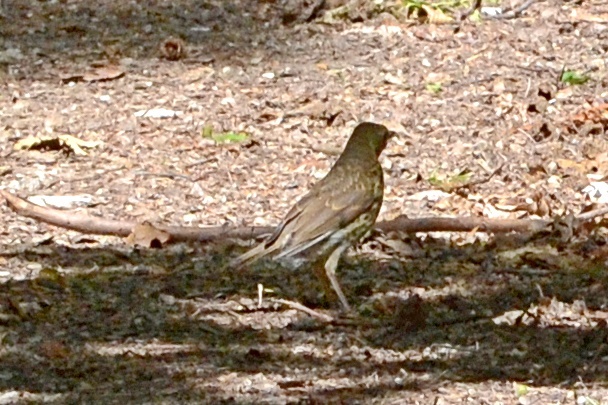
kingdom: Animalia
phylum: Chordata
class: Aves
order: Passeriformes
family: Turdidae
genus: Turdus
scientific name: Turdus philomelos
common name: Song thrush
